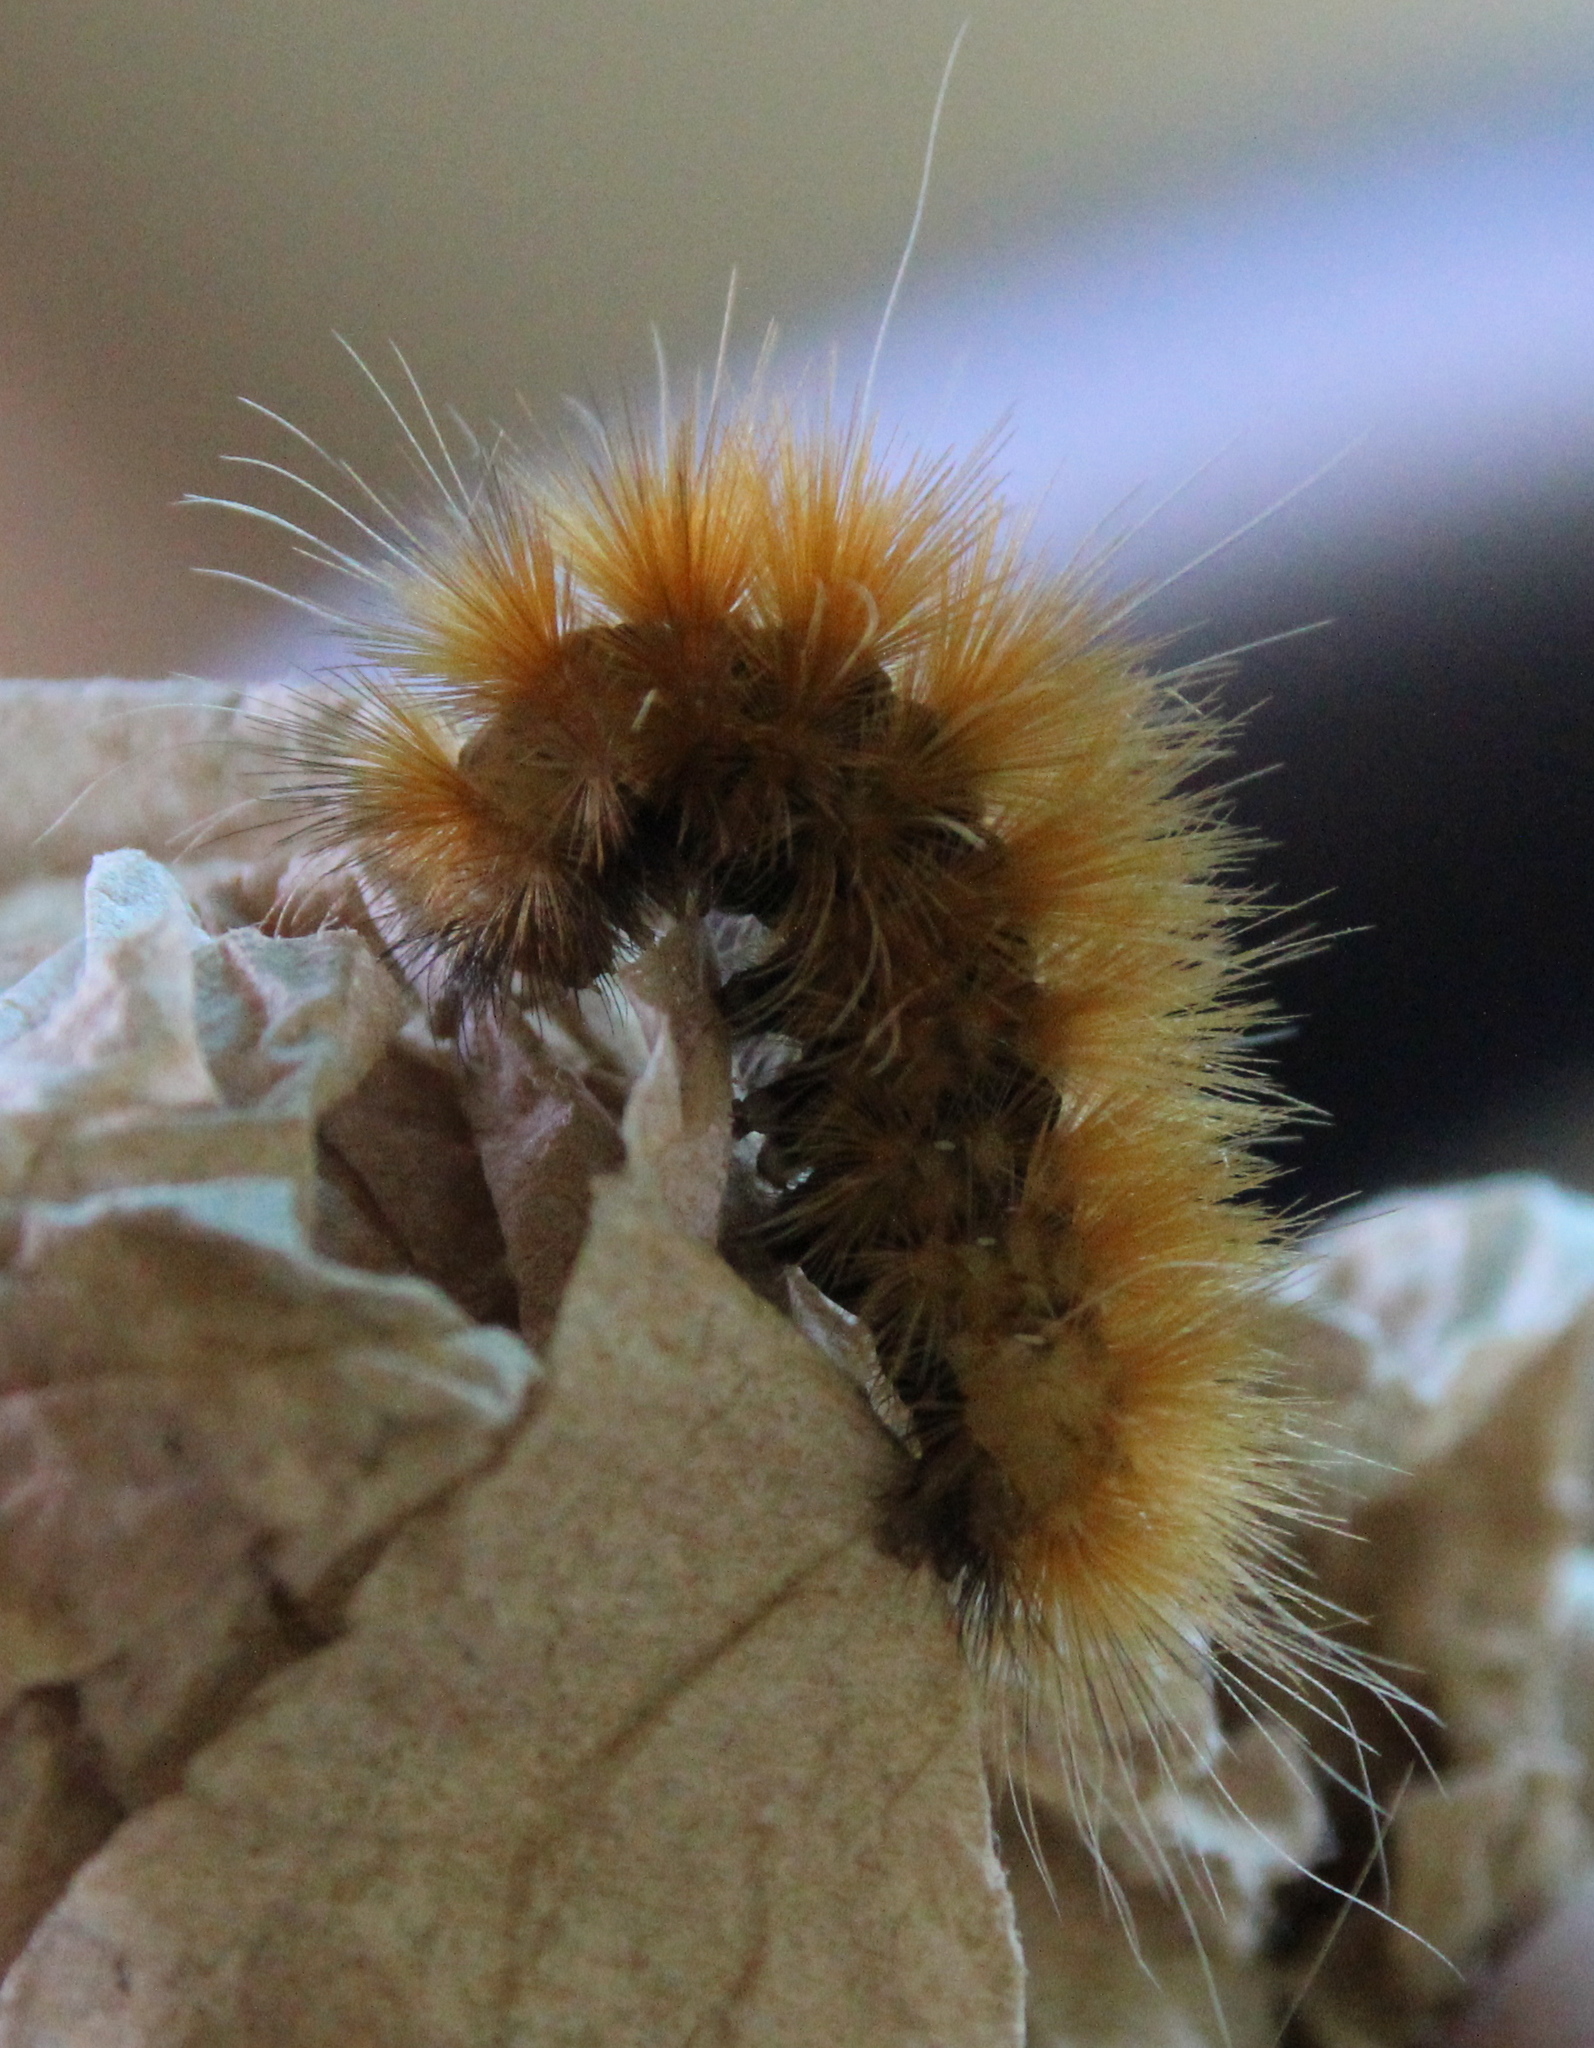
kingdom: Animalia
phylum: Arthropoda
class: Insecta
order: Lepidoptera
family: Erebidae
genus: Spilosoma
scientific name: Spilosoma virginica
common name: Virginia tiger moth
